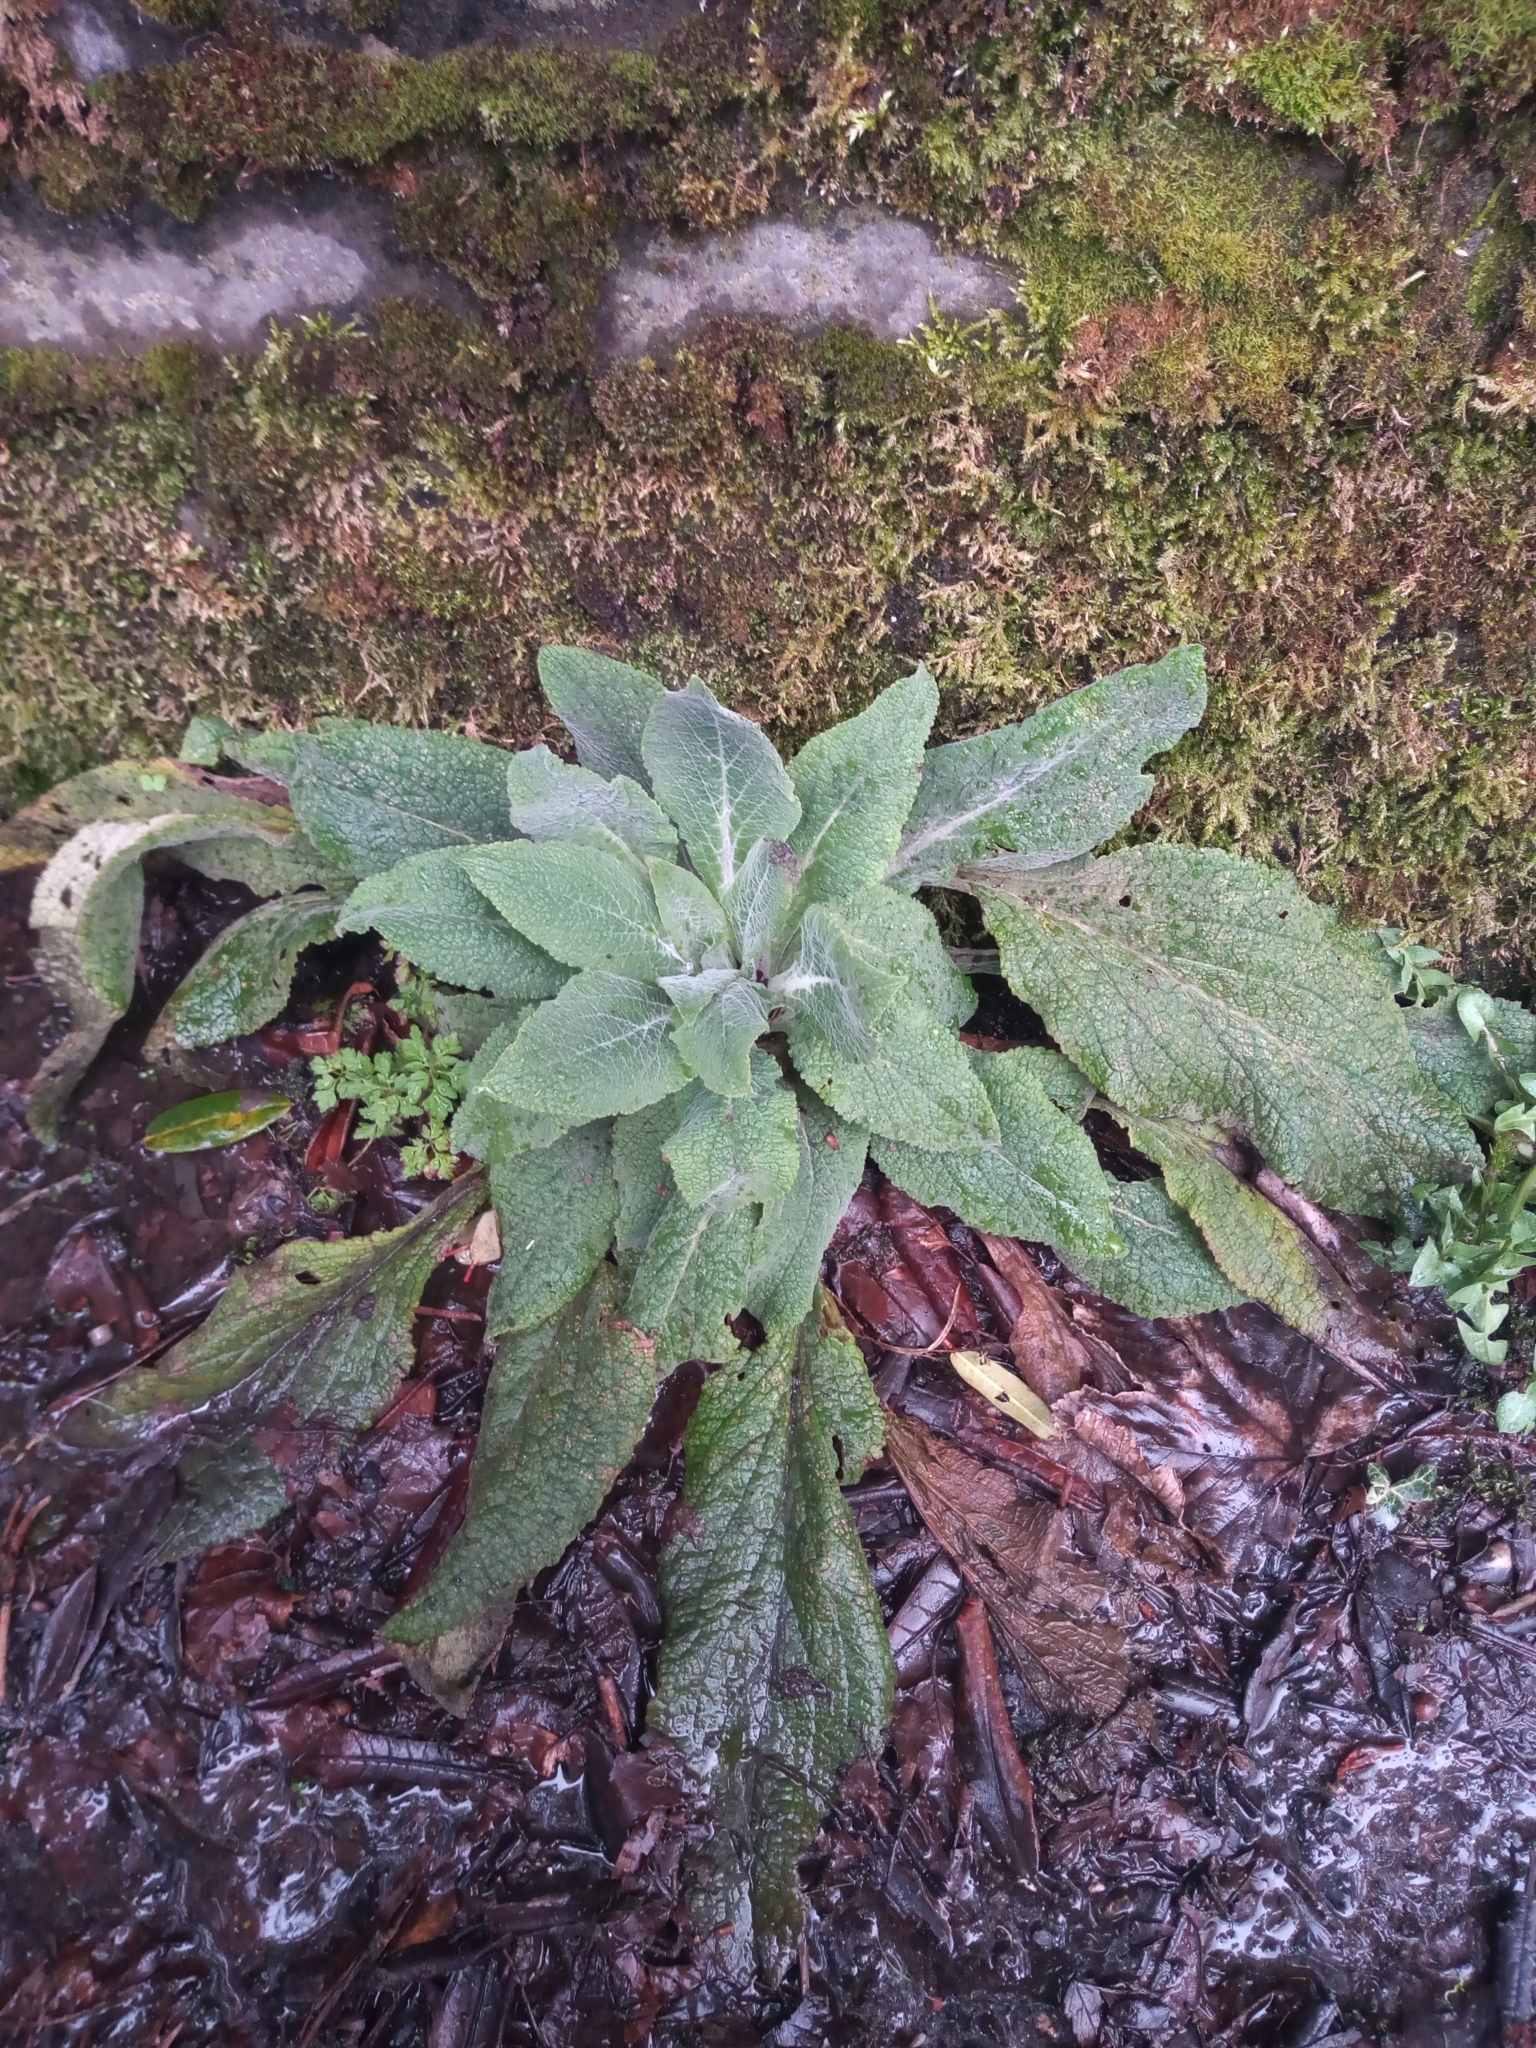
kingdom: Plantae
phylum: Tracheophyta
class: Magnoliopsida
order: Lamiales
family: Plantaginaceae
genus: Digitalis
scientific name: Digitalis purpurea
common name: Foxglove
